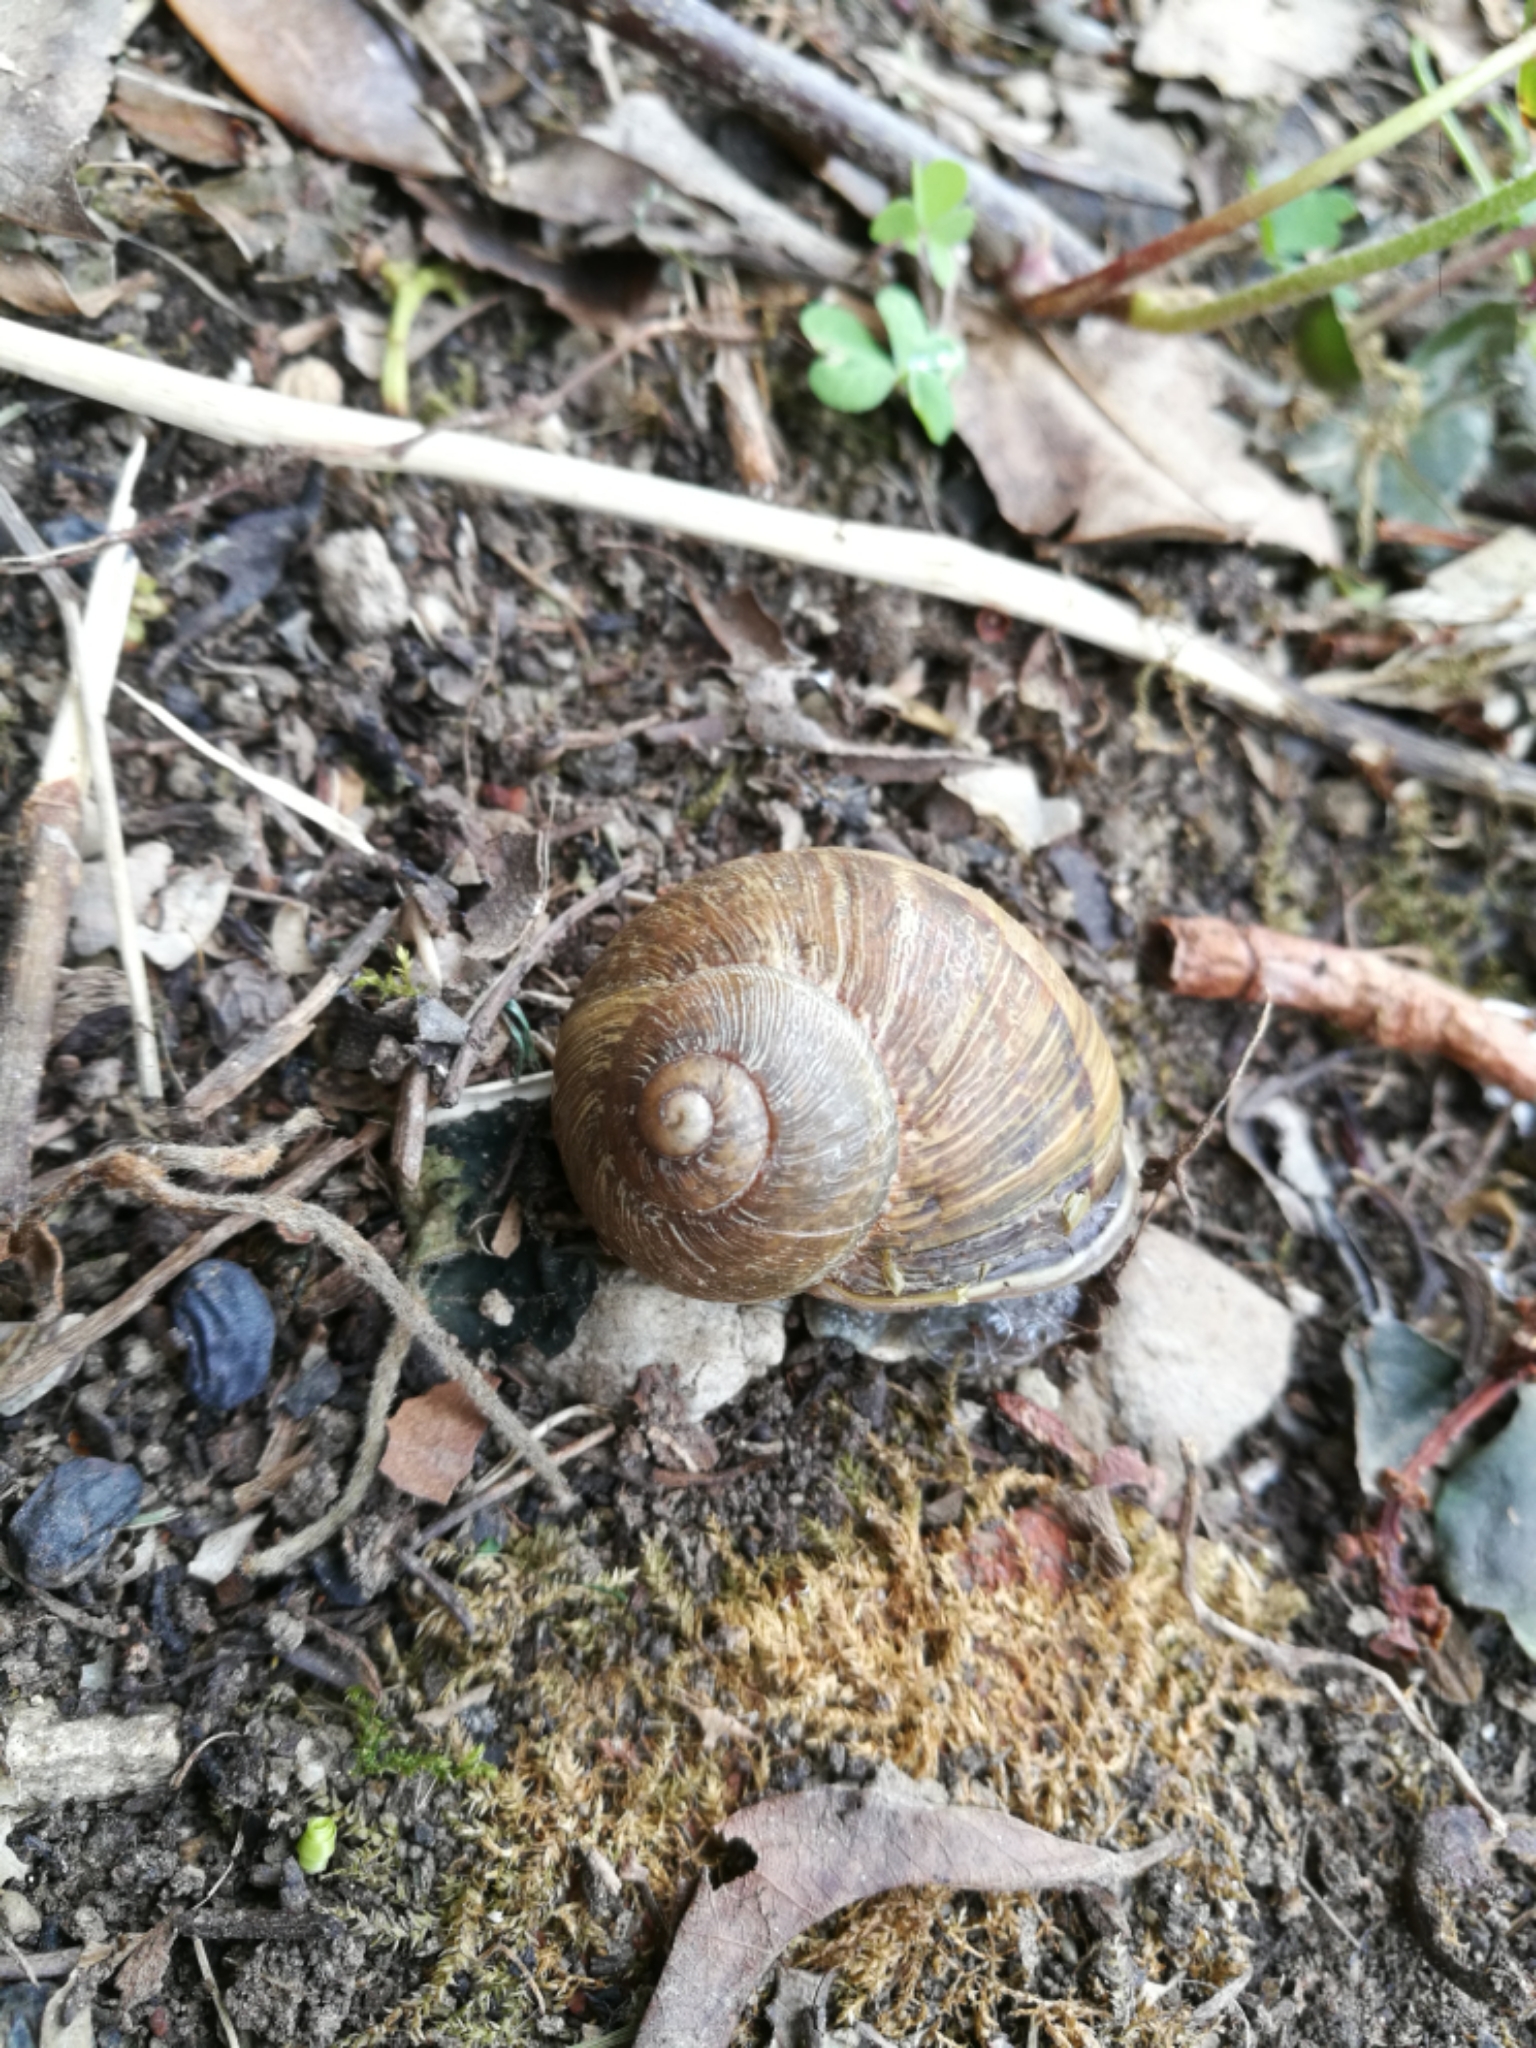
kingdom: Animalia
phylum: Mollusca
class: Gastropoda
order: Stylommatophora
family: Helicidae
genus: Cornu
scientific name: Cornu aspersum
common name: Brown garden snail
